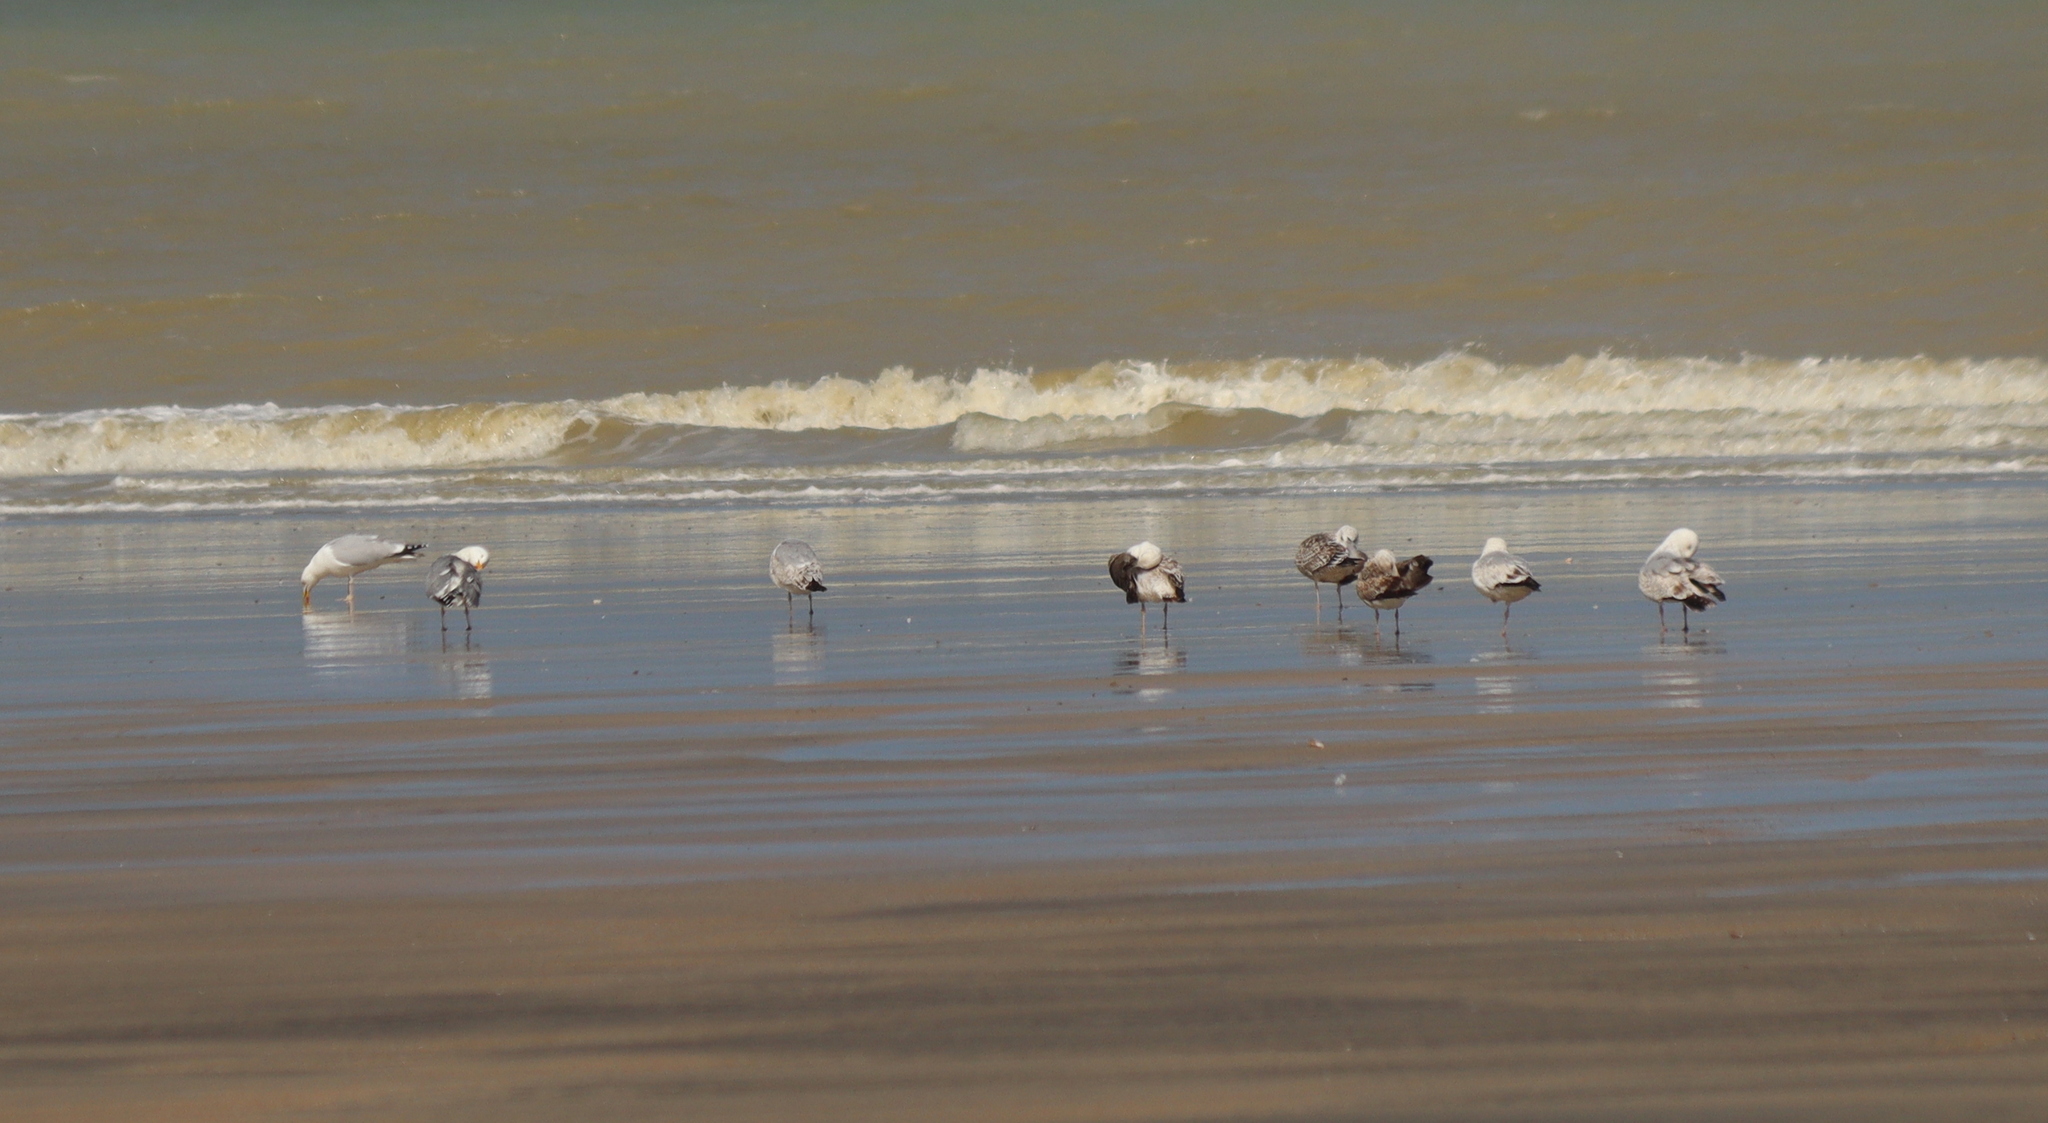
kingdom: Animalia
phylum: Chordata
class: Aves
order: Charadriiformes
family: Laridae
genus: Larus
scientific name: Larus argentatus
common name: Herring gull
